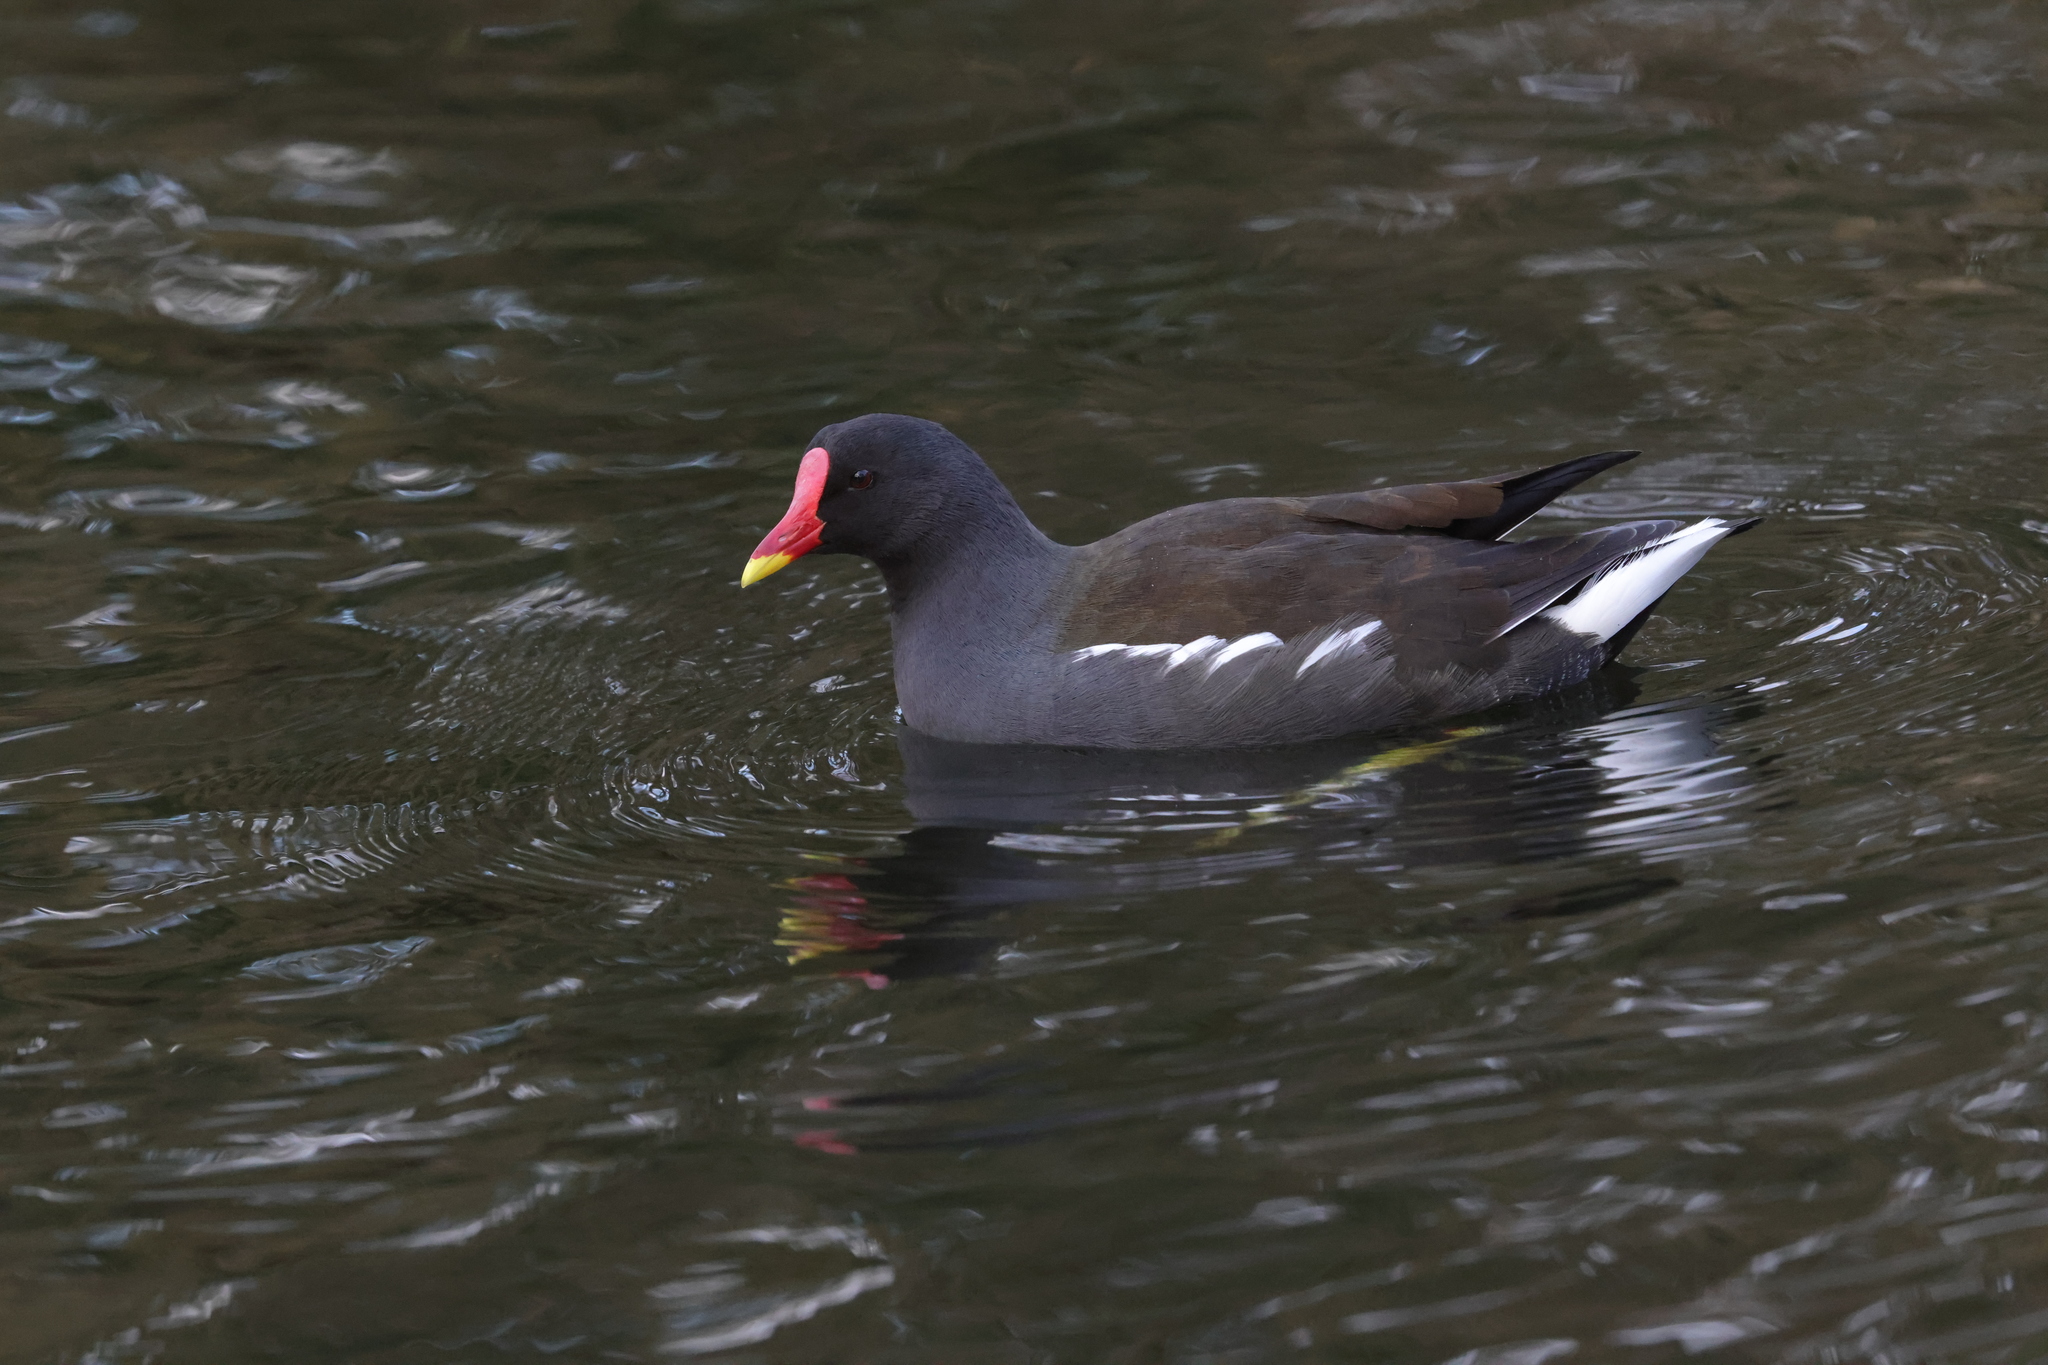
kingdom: Animalia
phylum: Chordata
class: Aves
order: Gruiformes
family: Rallidae
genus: Gallinula
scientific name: Gallinula chloropus
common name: Common moorhen
